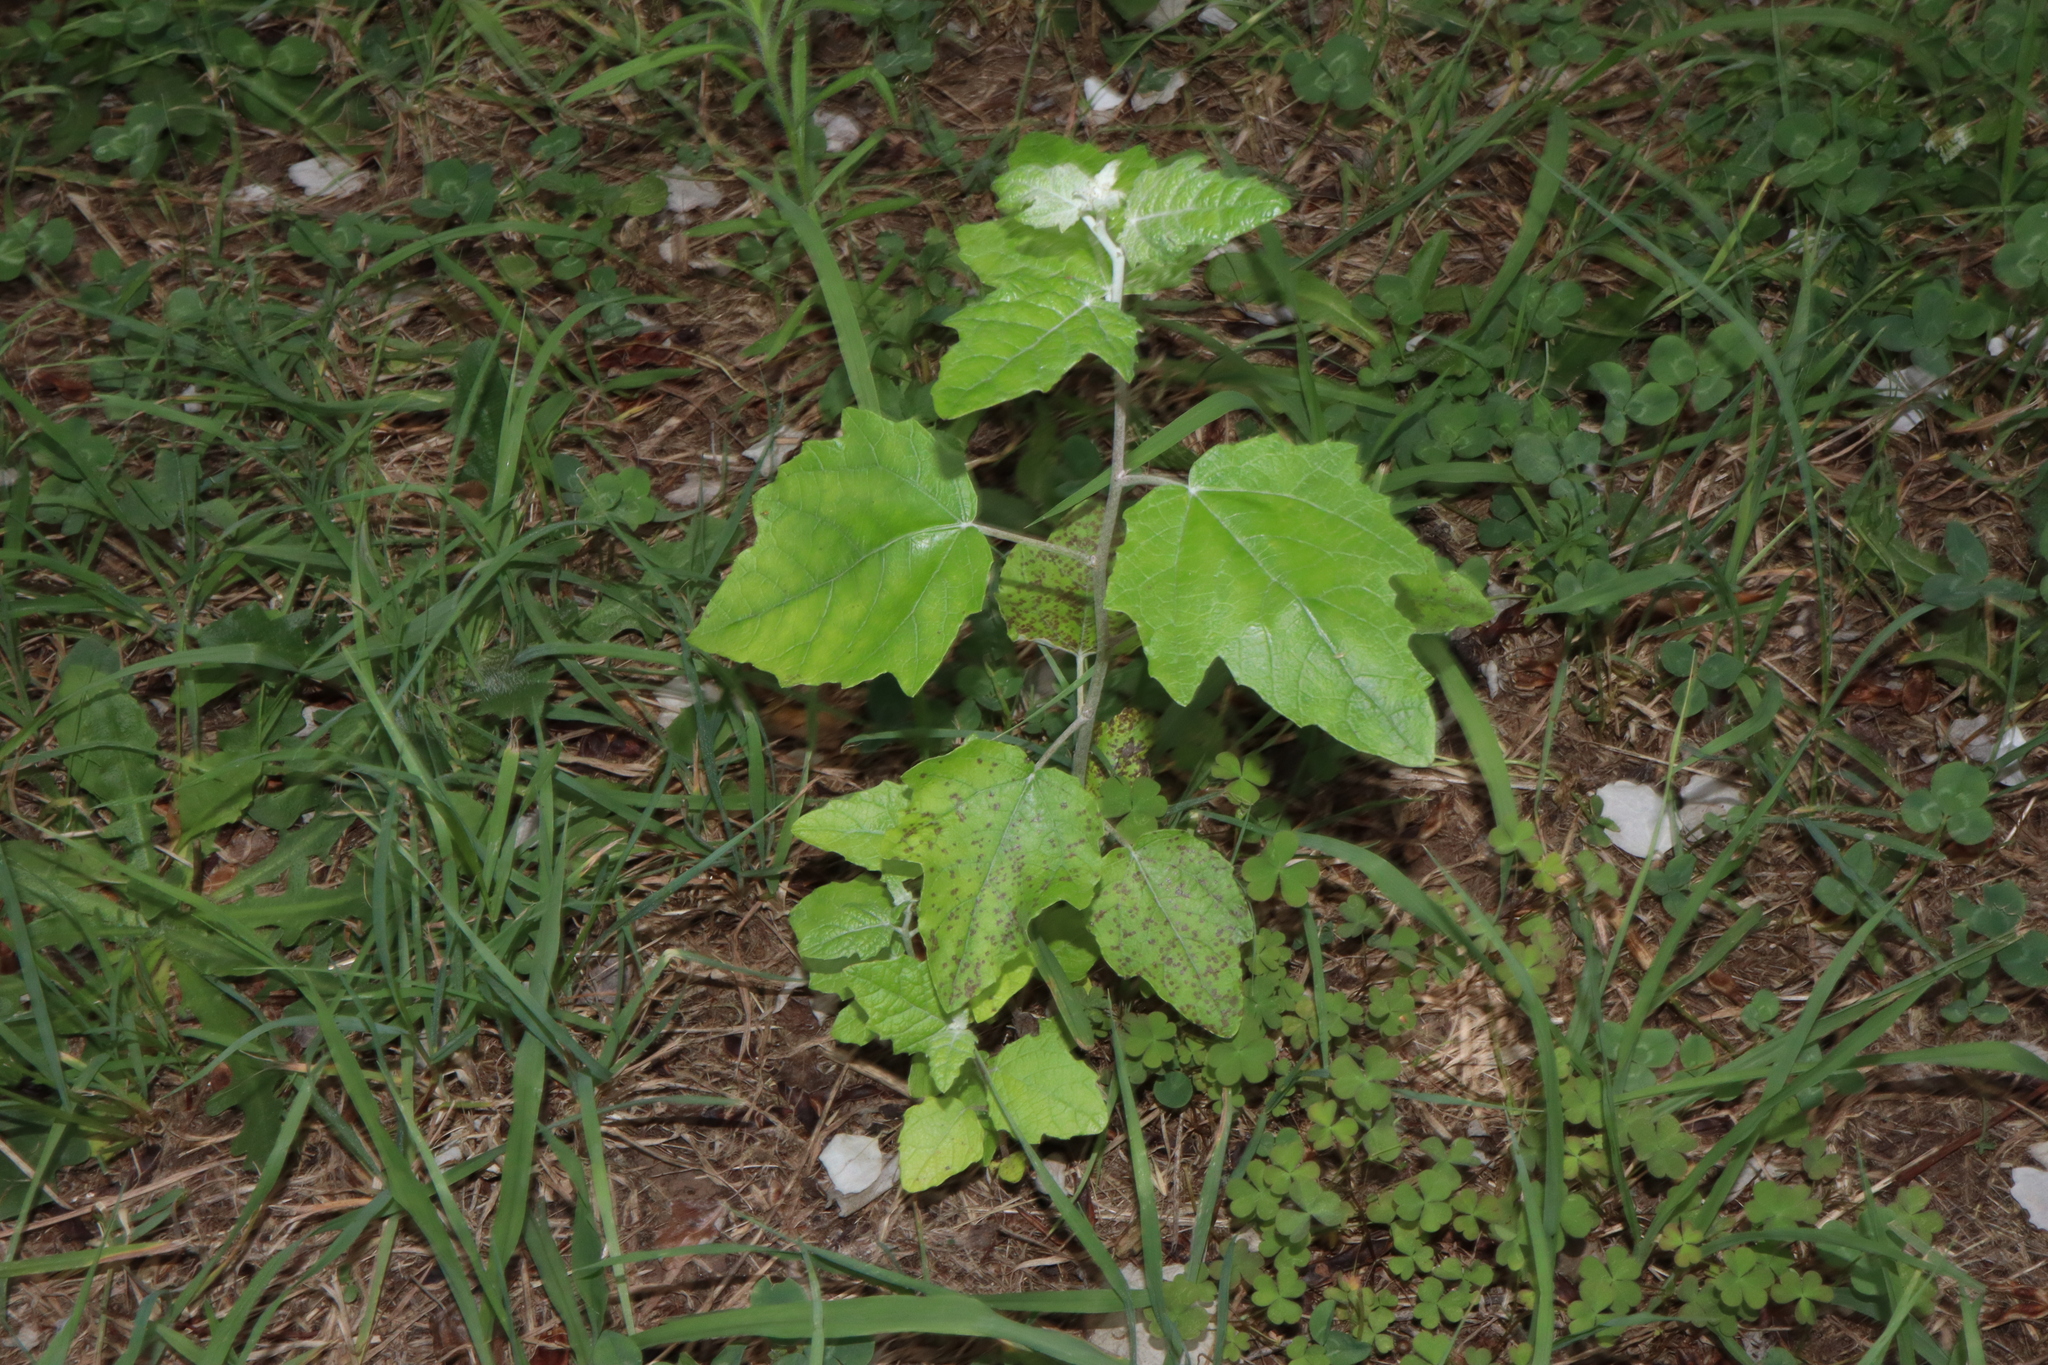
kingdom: Plantae
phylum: Tracheophyta
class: Magnoliopsida
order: Malpighiales
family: Salicaceae
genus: Populus
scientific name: Populus alba
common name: White poplar
